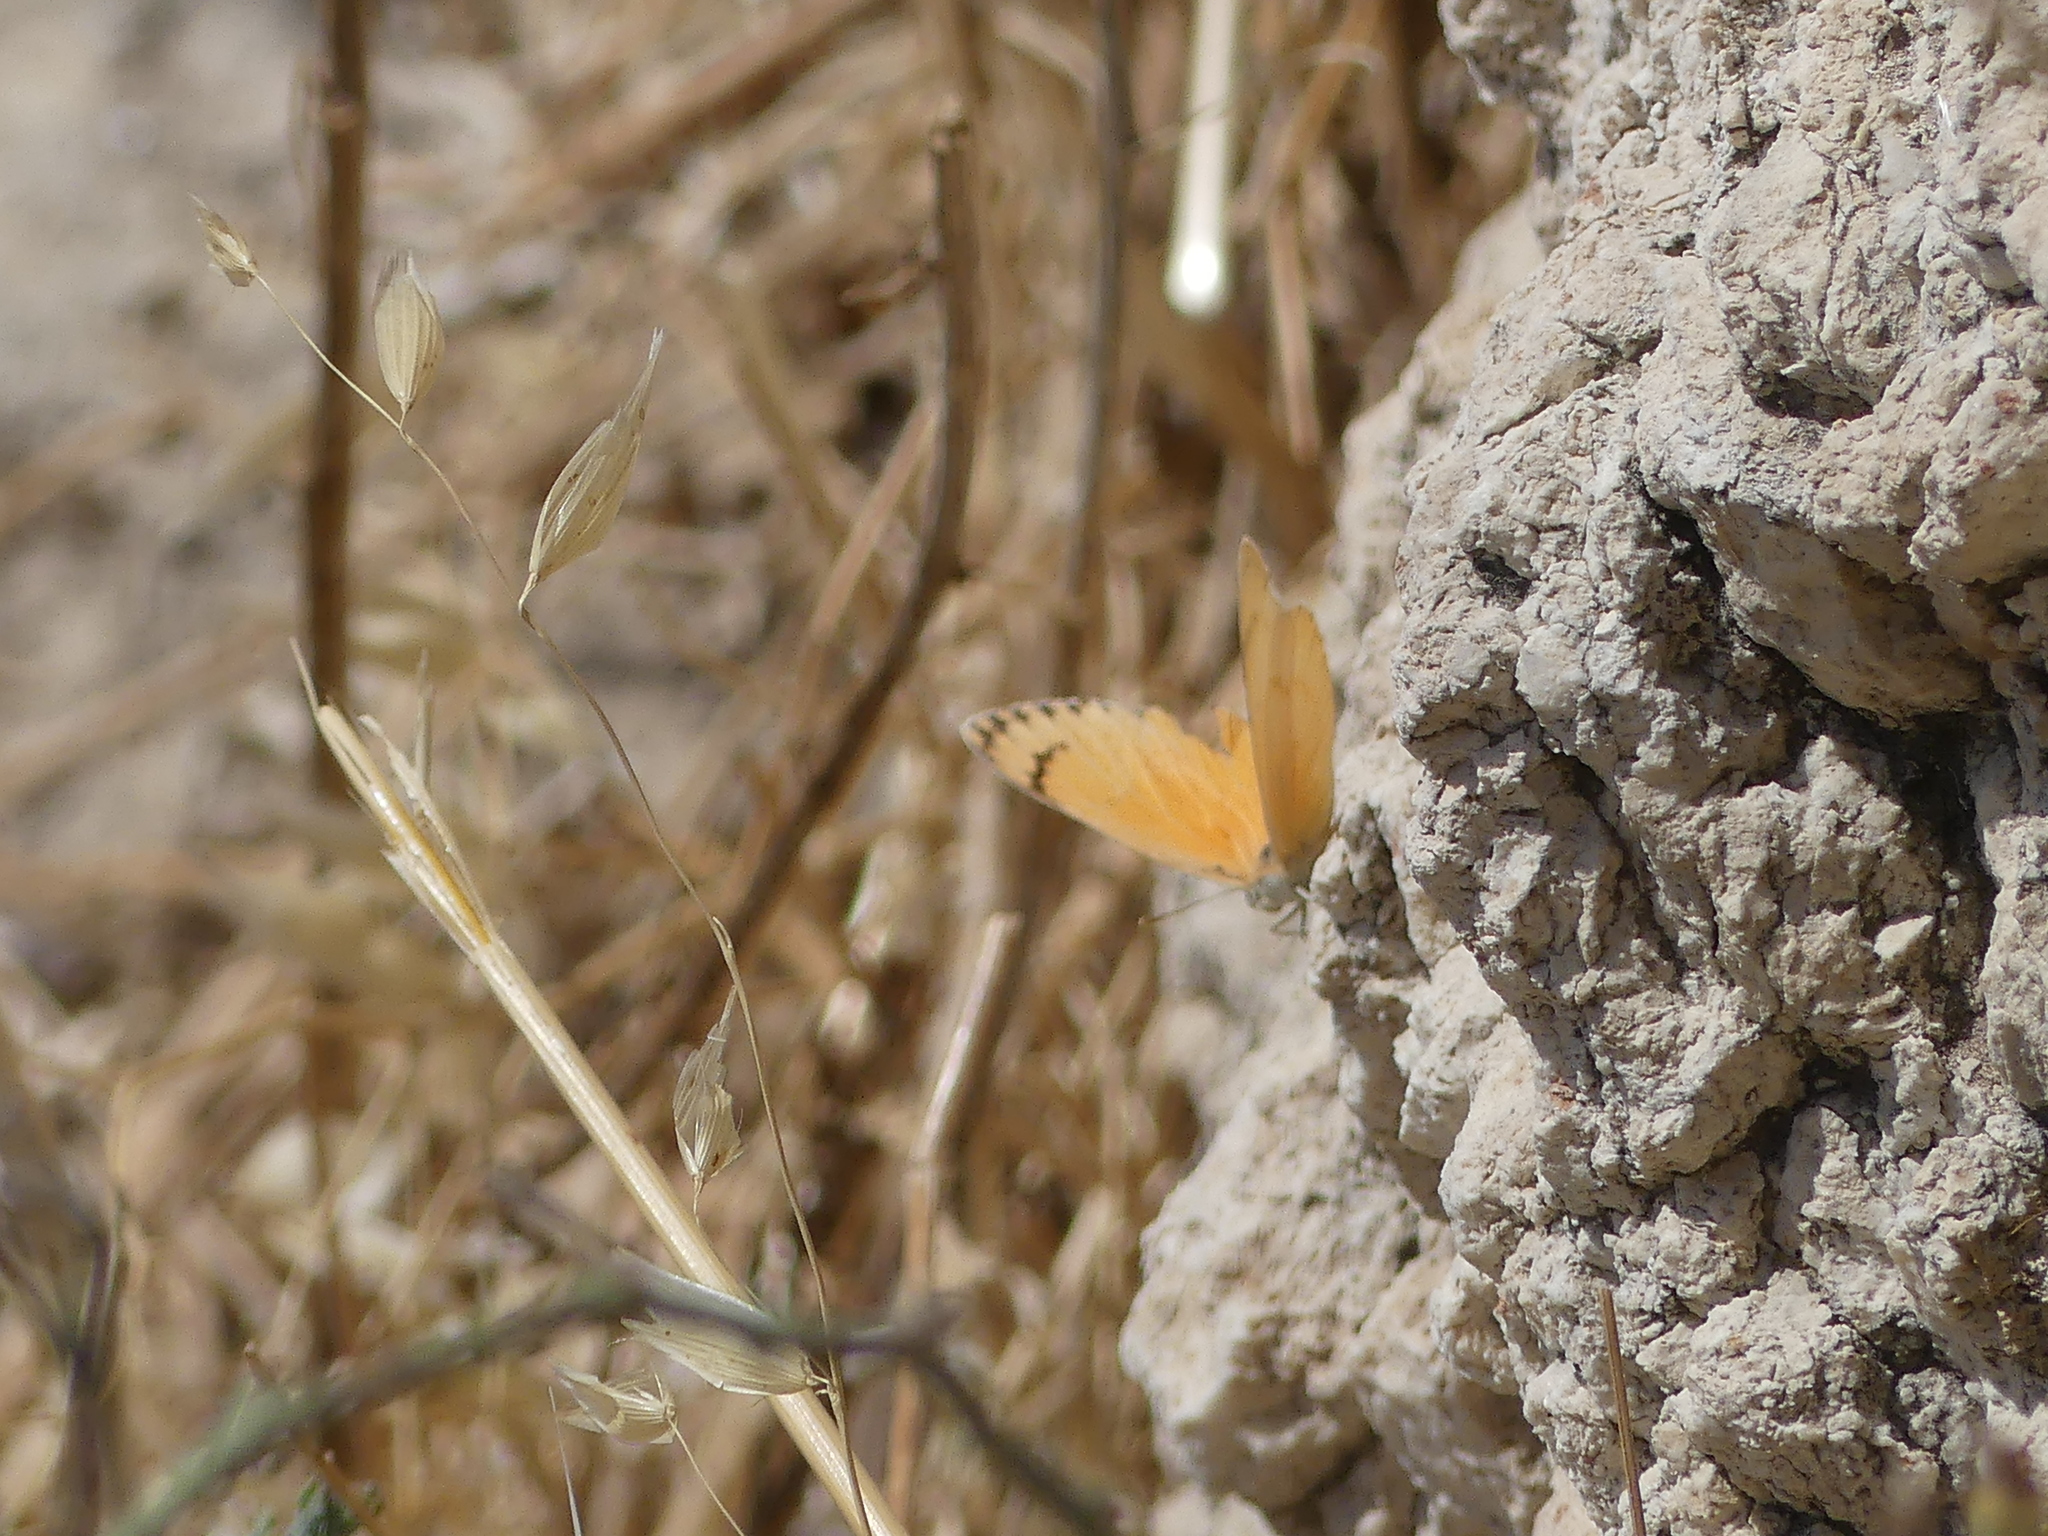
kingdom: Animalia
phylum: Arthropoda
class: Insecta
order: Lepidoptera
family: Pieridae
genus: Colotis
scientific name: Colotis fausta
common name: Large salmon arab
